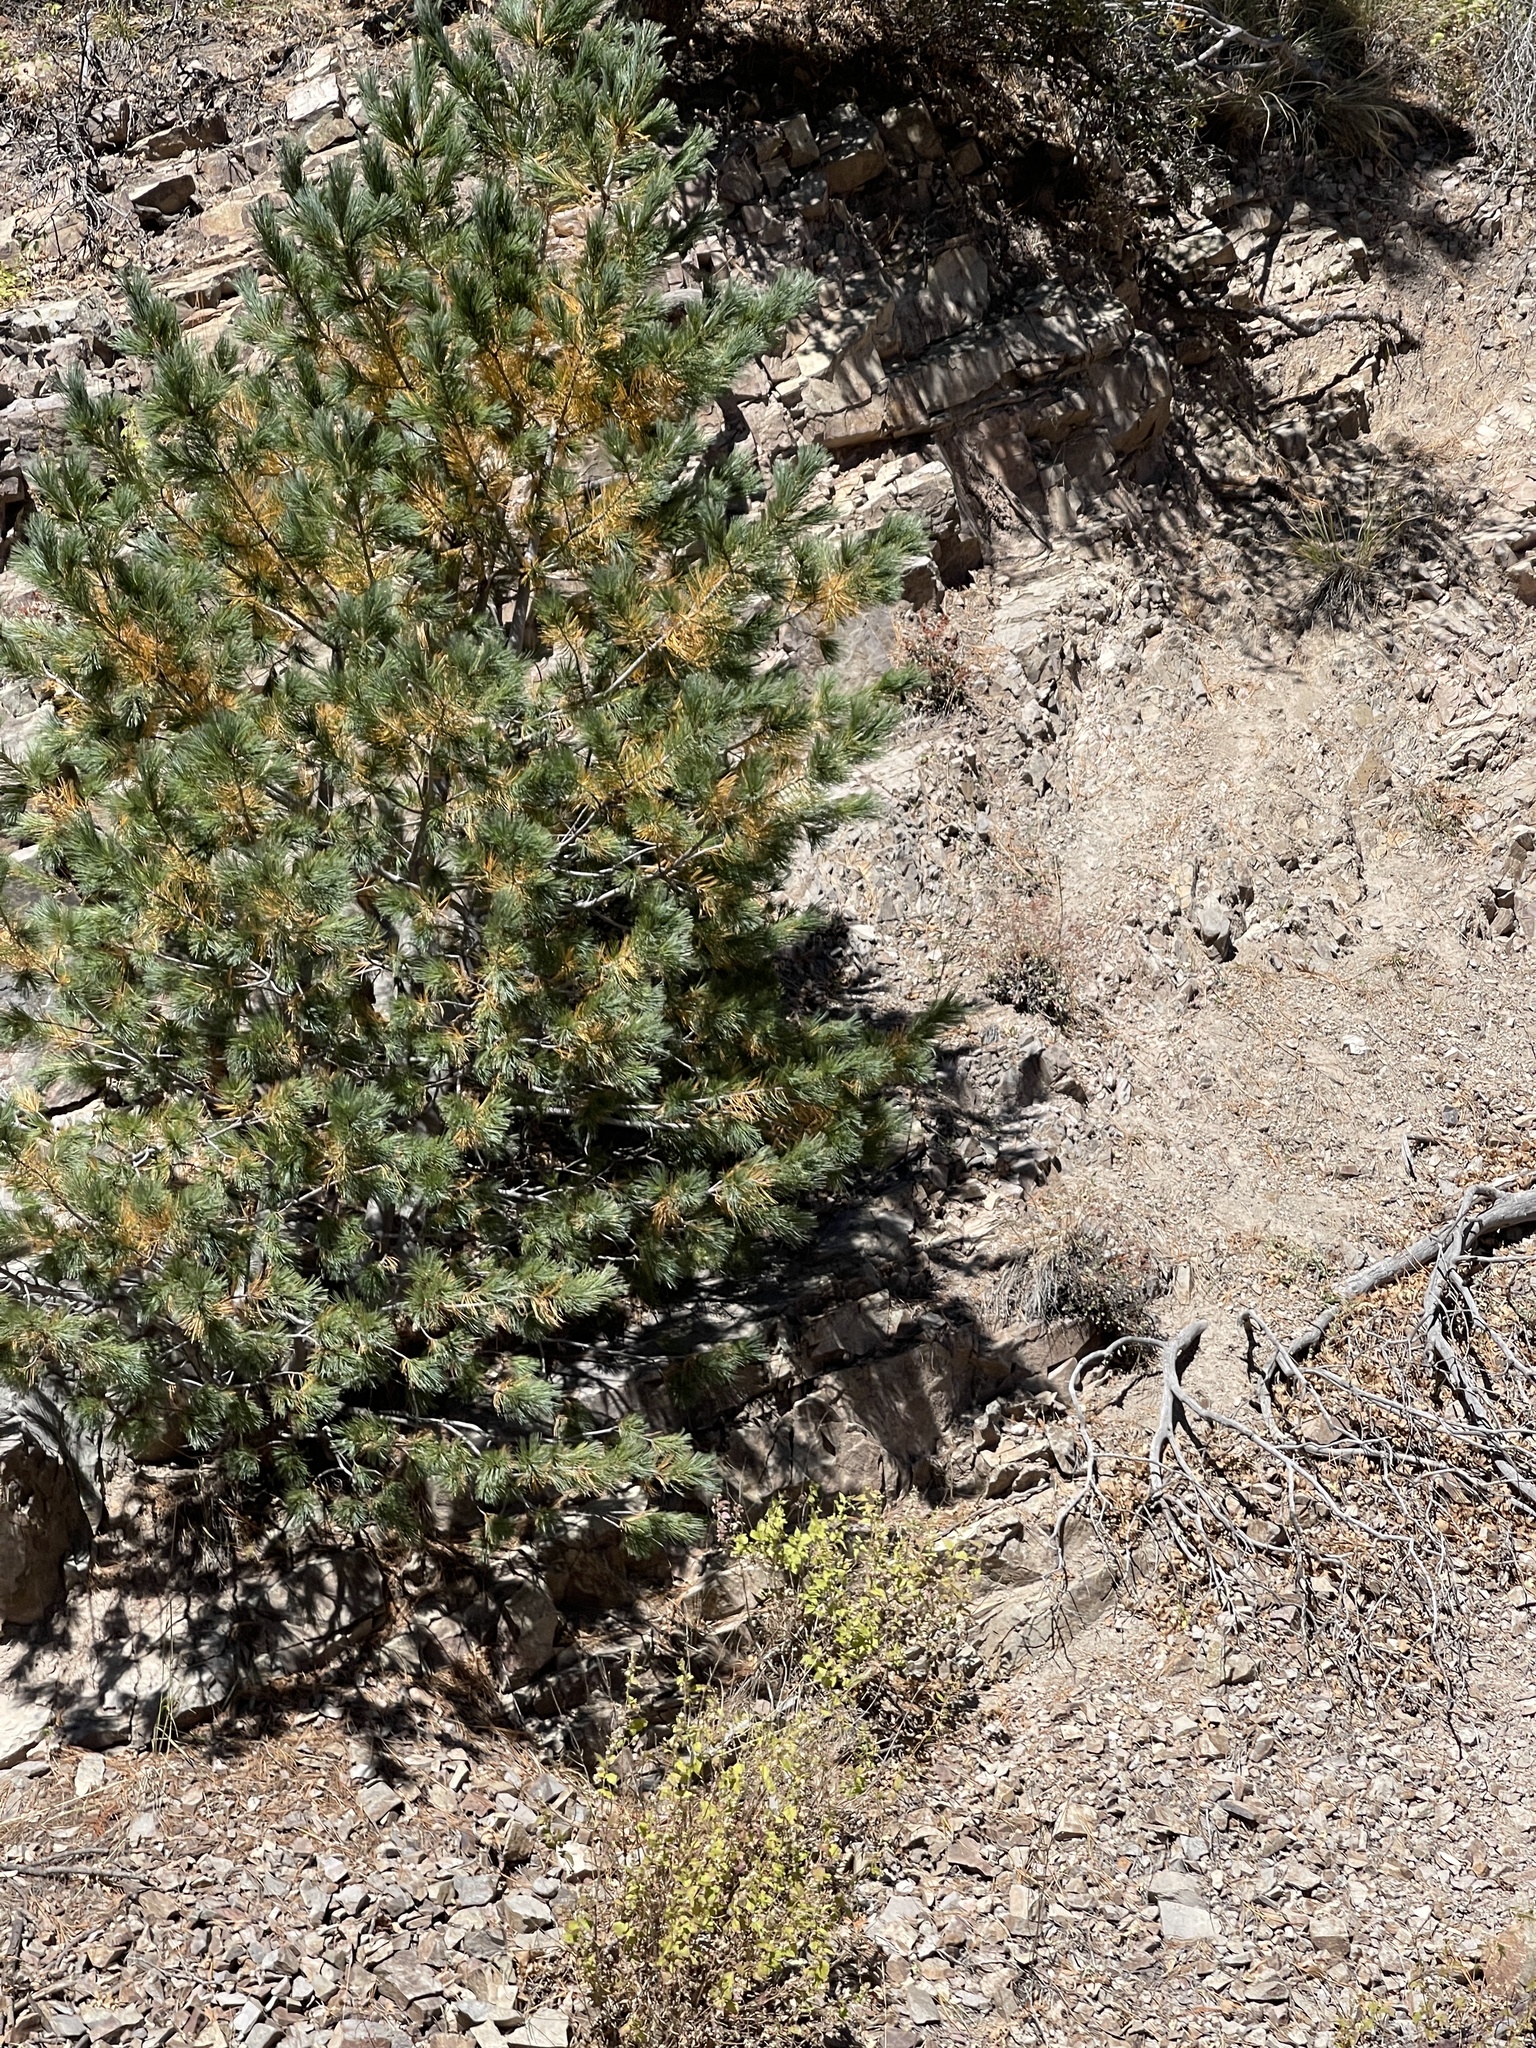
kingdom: Plantae
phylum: Tracheophyta
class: Pinopsida
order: Pinales
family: Pinaceae
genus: Pinus
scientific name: Pinus strobiformis
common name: Southwestern white pine
